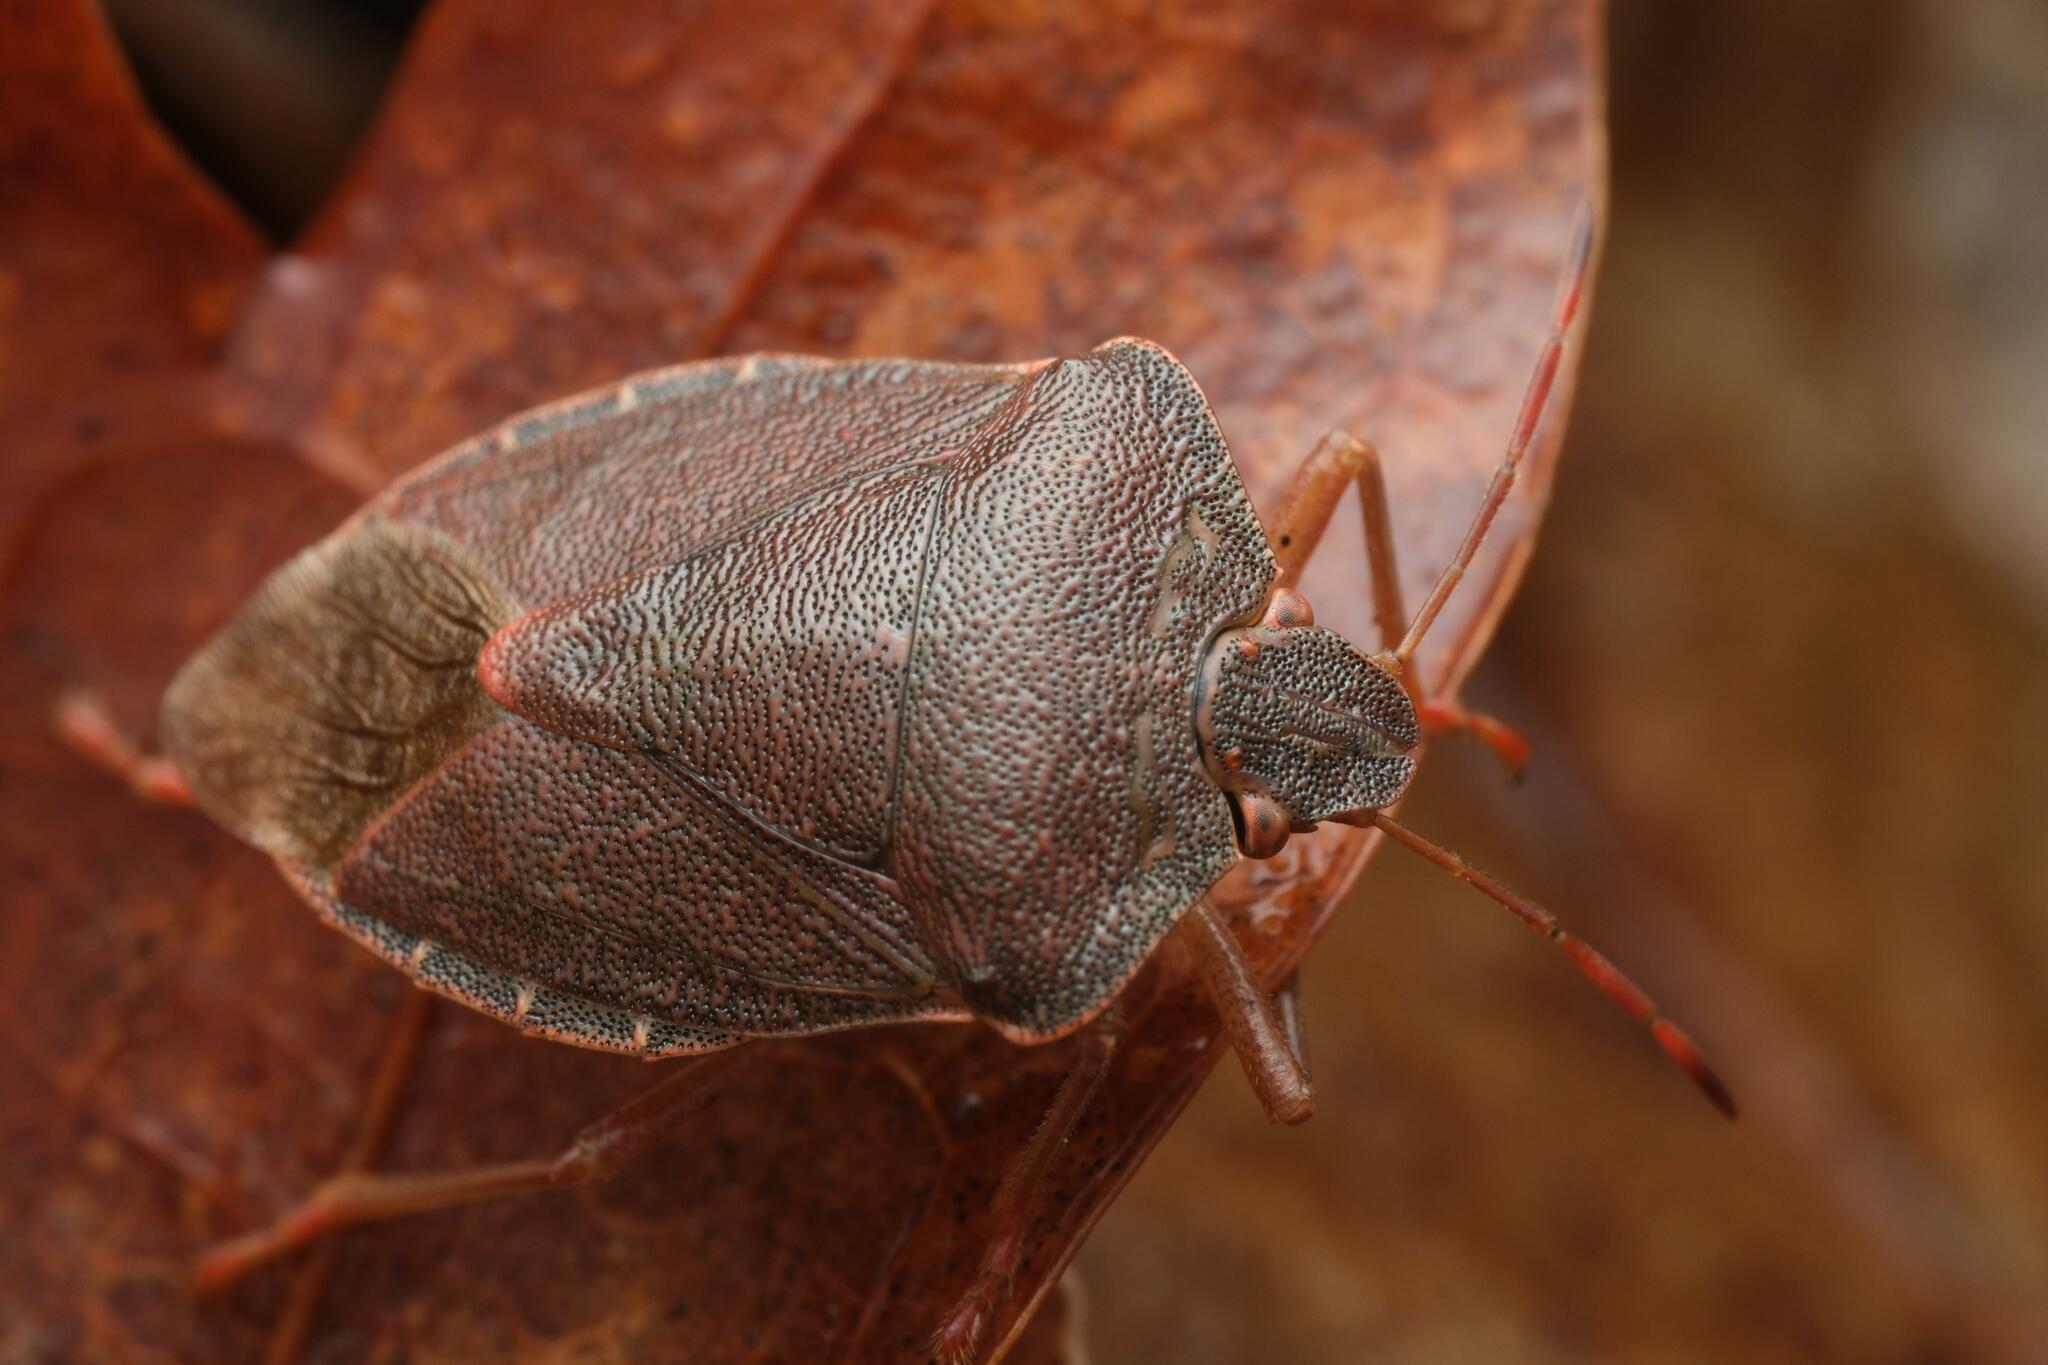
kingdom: Animalia
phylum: Arthropoda
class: Insecta
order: Hemiptera
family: Pentatomidae
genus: Palomena
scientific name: Palomena prasina
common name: Green shieldbug
